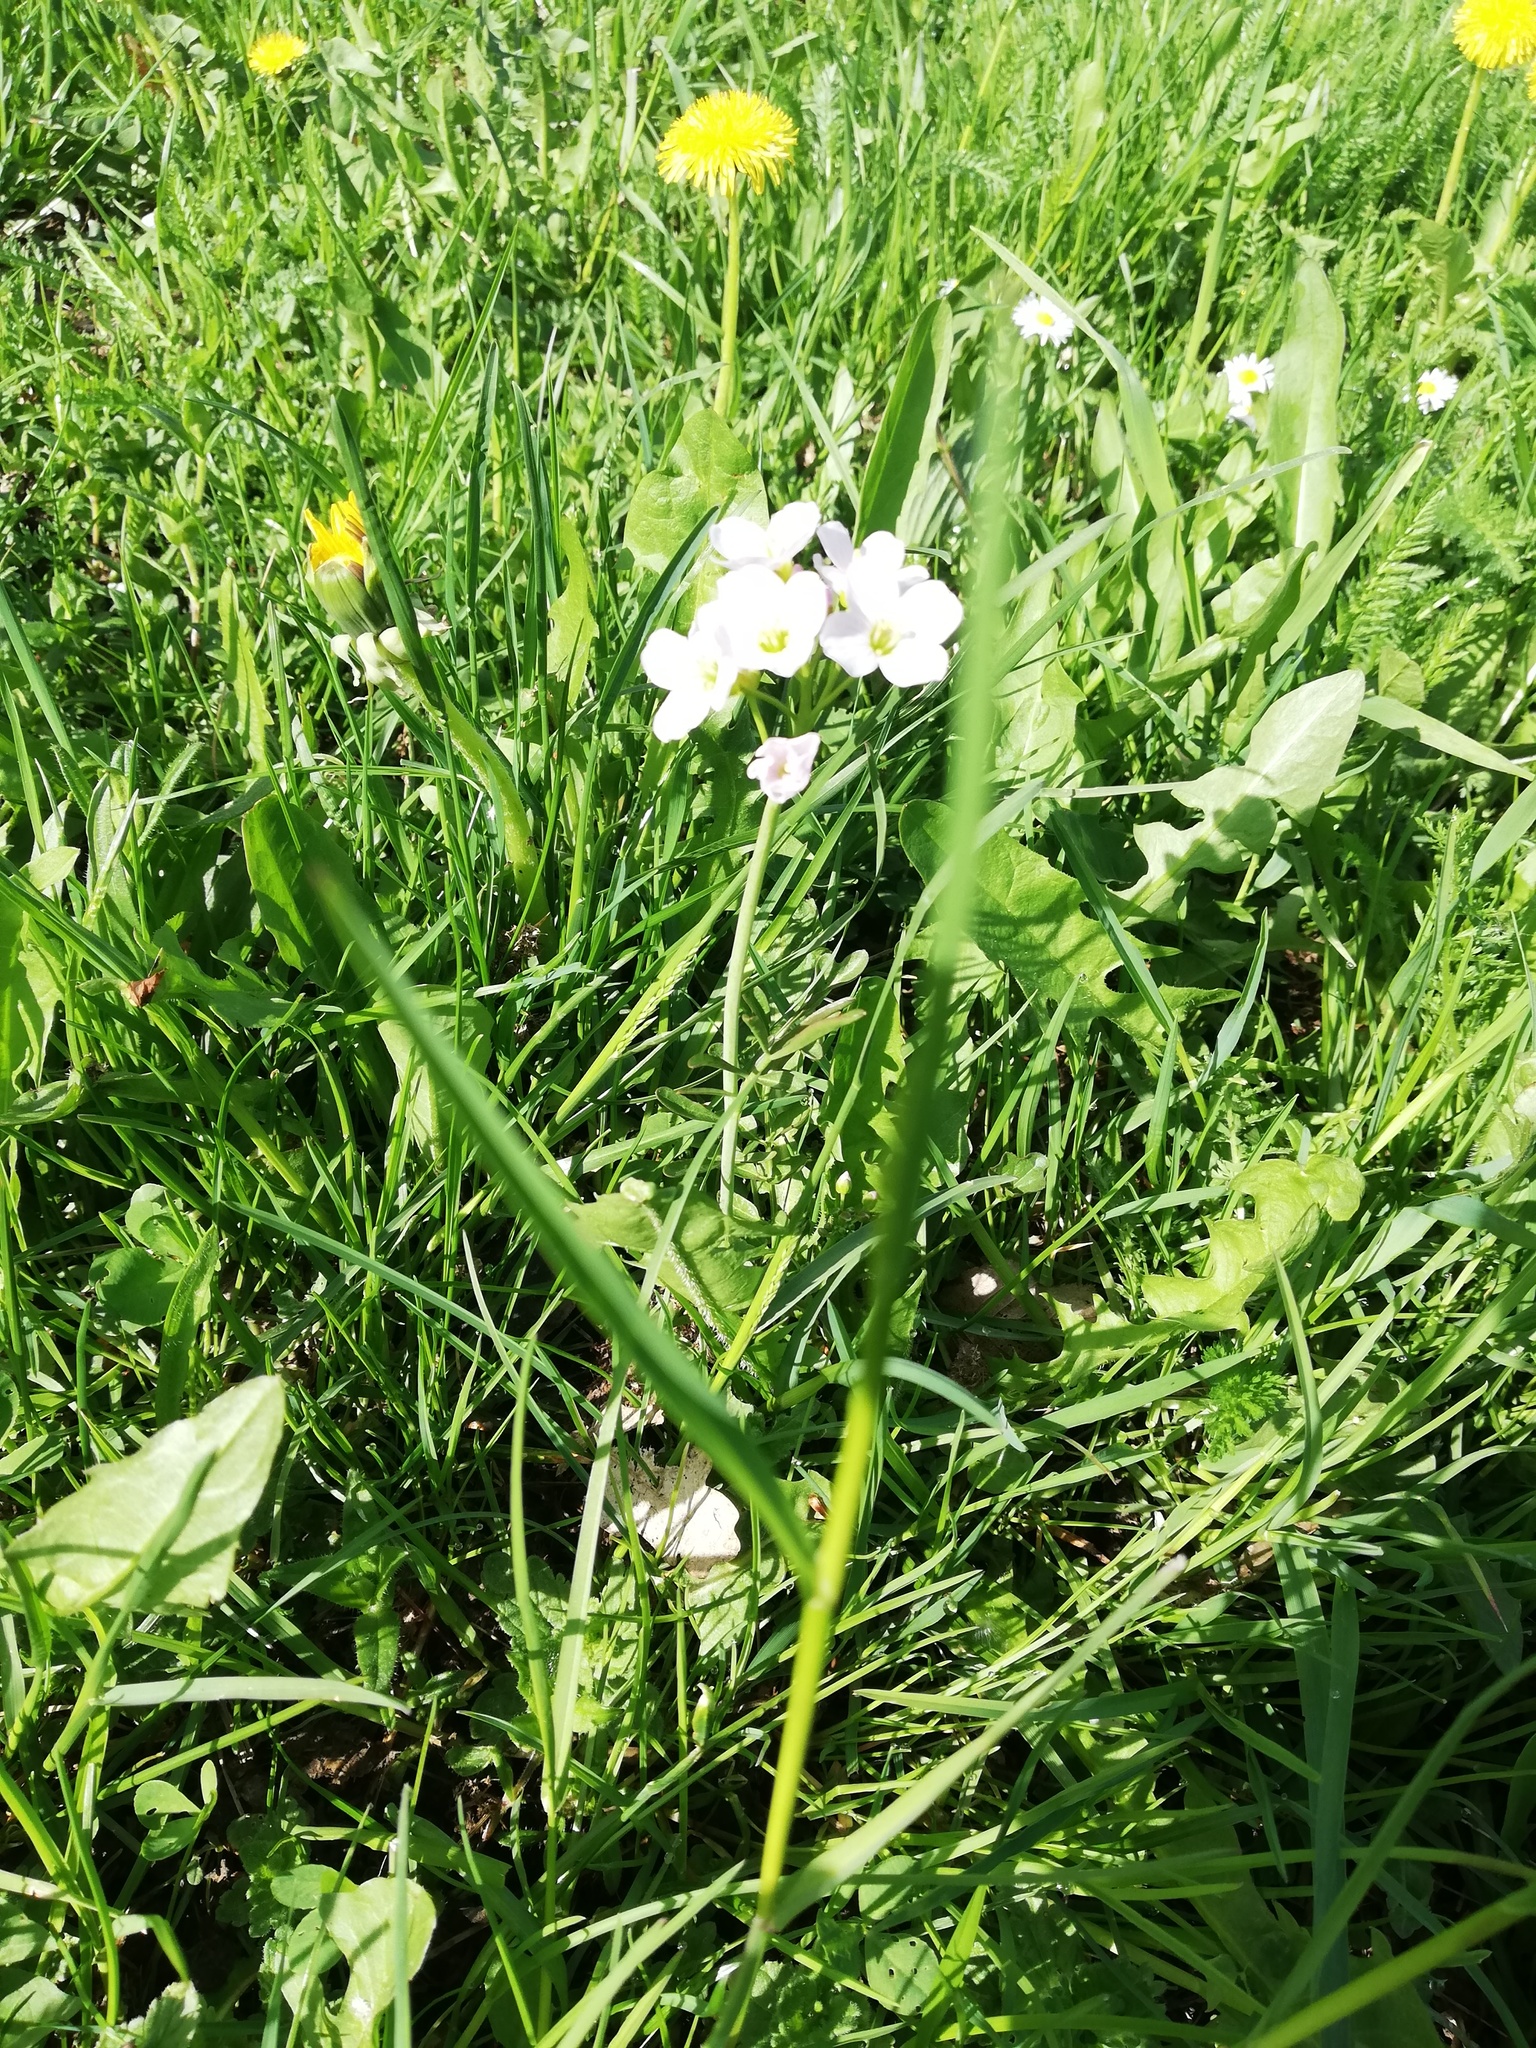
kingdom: Plantae
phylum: Tracheophyta
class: Magnoliopsida
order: Brassicales
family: Brassicaceae
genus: Cardamine
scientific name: Cardamine pratensis
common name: Cuckoo flower
